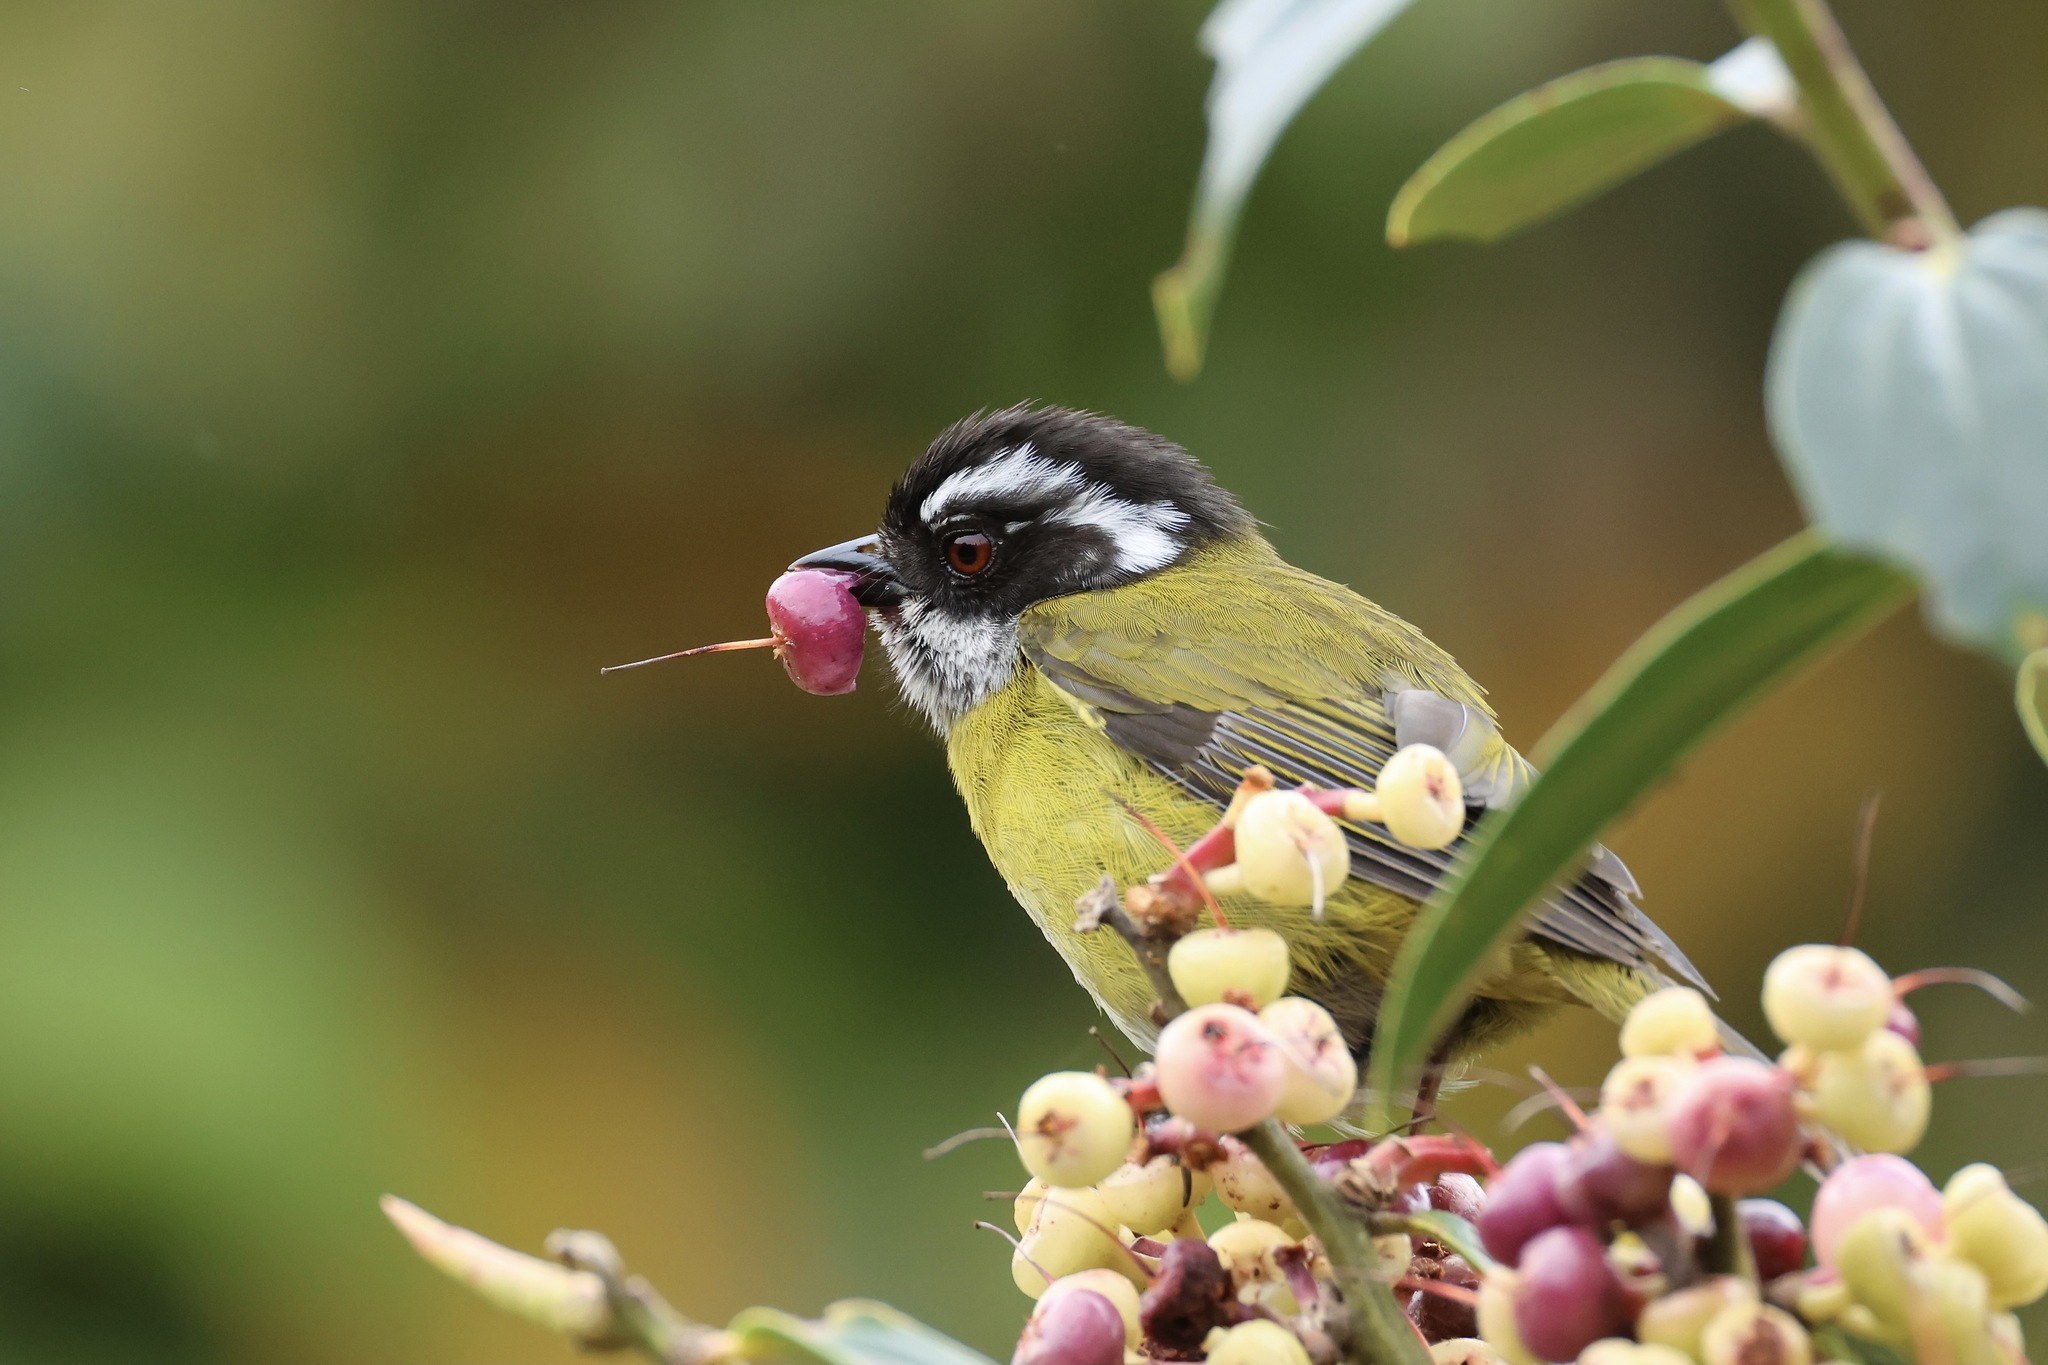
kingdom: Animalia
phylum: Chordata
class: Aves
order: Passeriformes
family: Passerellidae
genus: Chlorospingus
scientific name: Chlorospingus pileatus
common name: Sooty-capped bush-tanager
